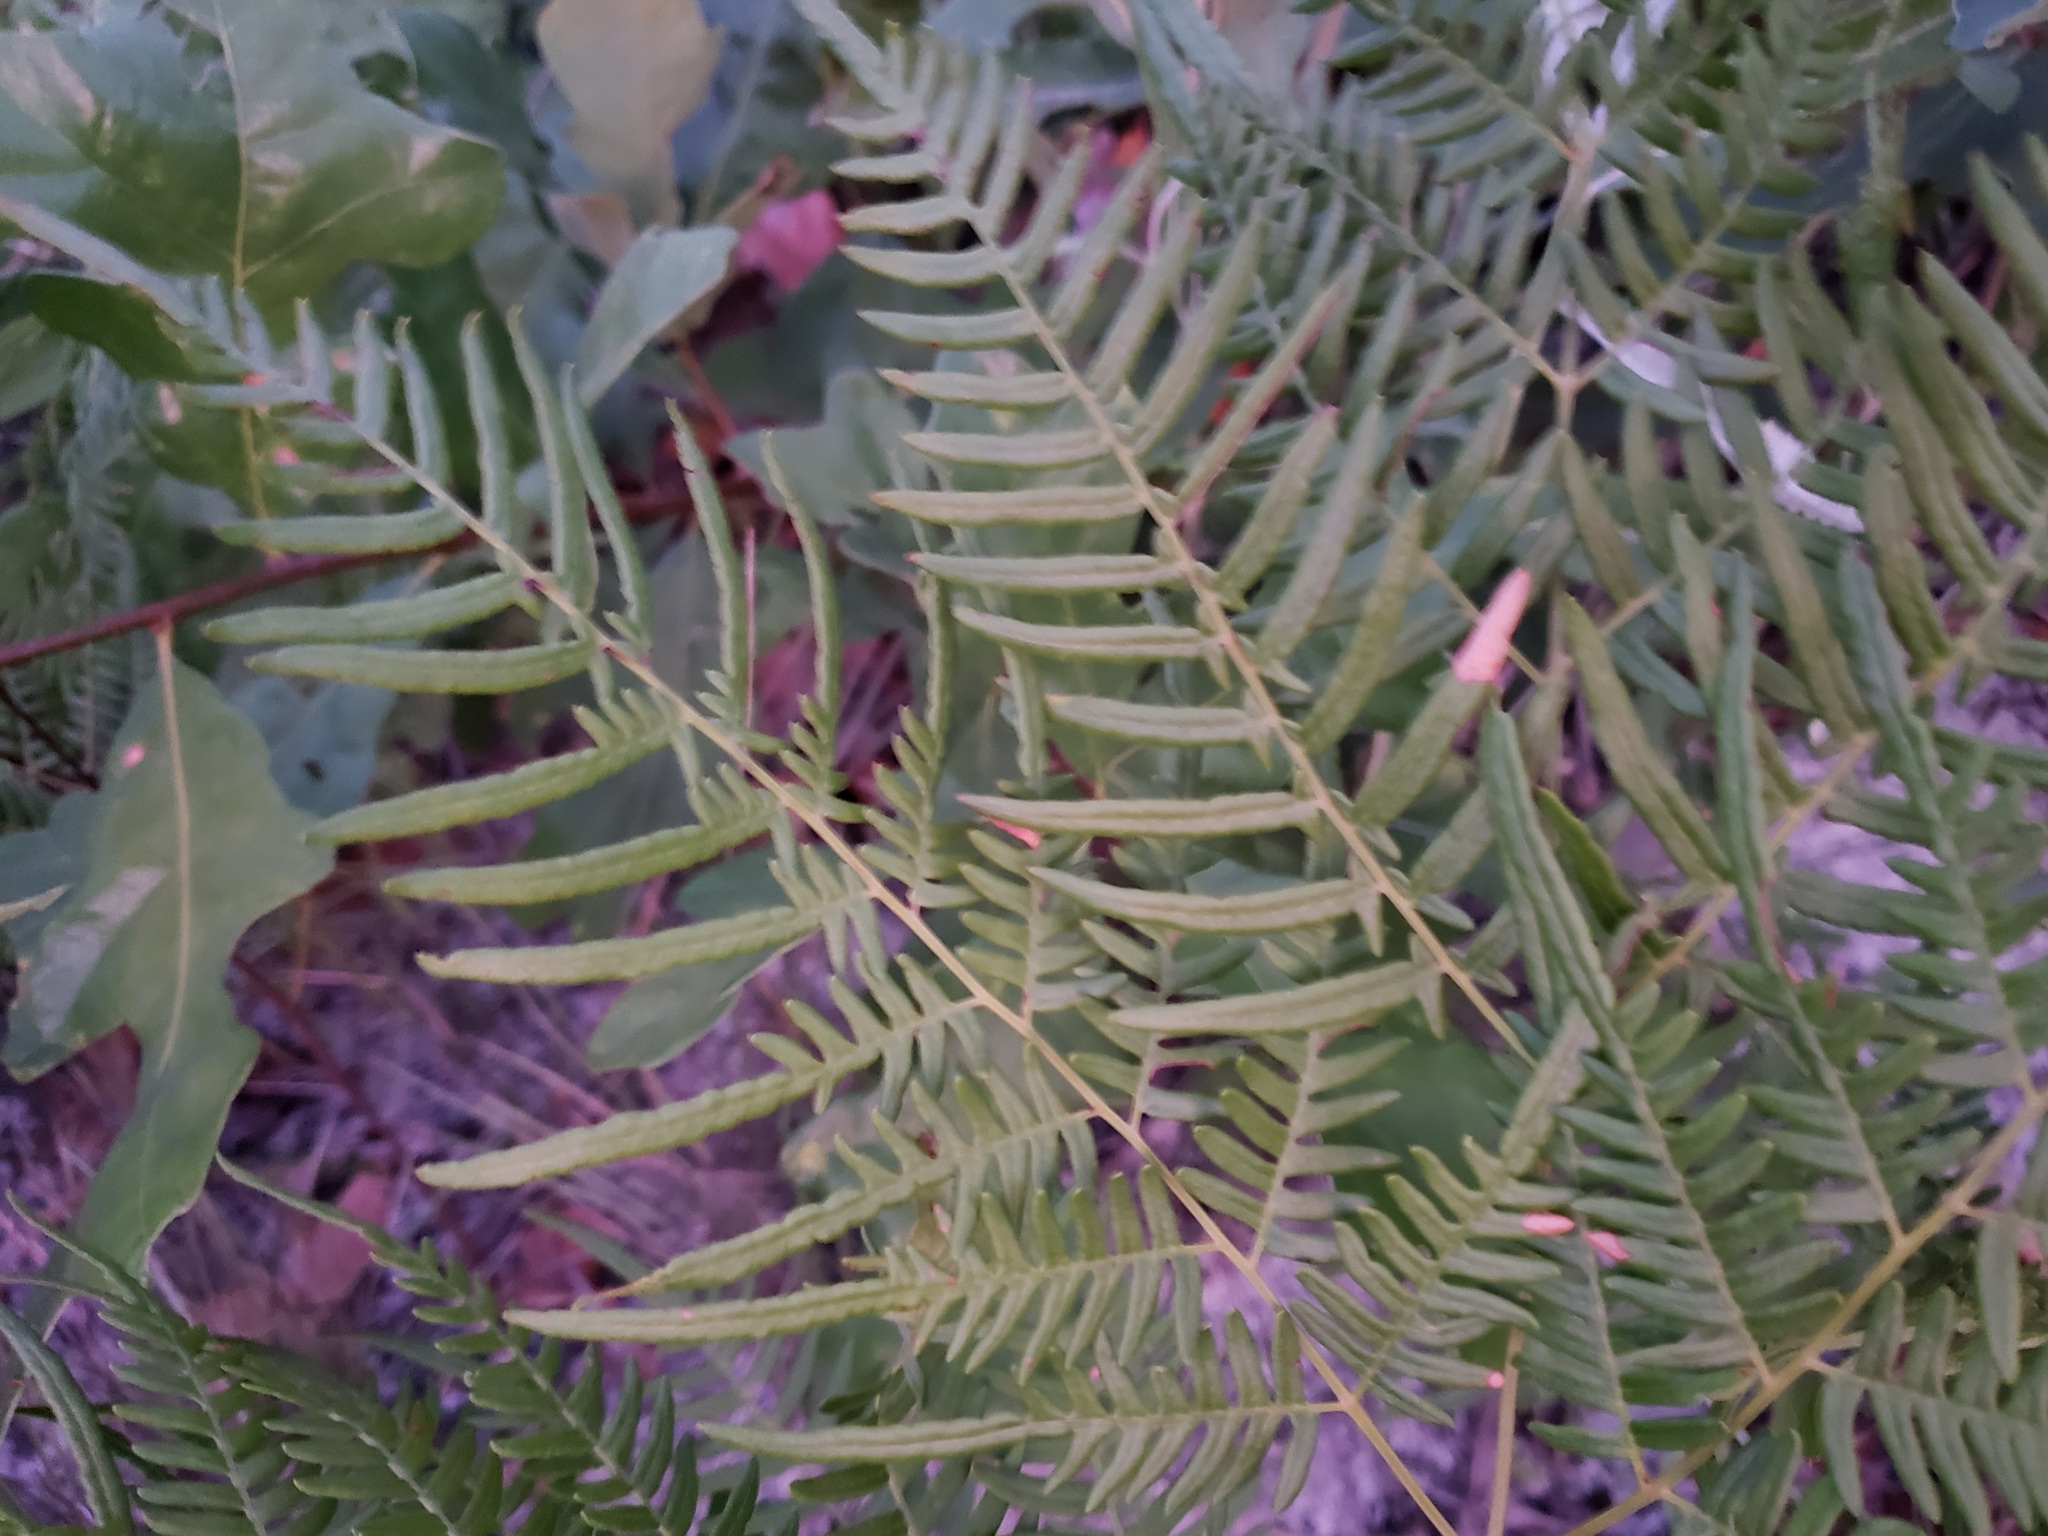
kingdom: Plantae
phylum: Tracheophyta
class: Polypodiopsida
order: Polypodiales
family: Dennstaedtiaceae
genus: Pteridium
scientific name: Pteridium
